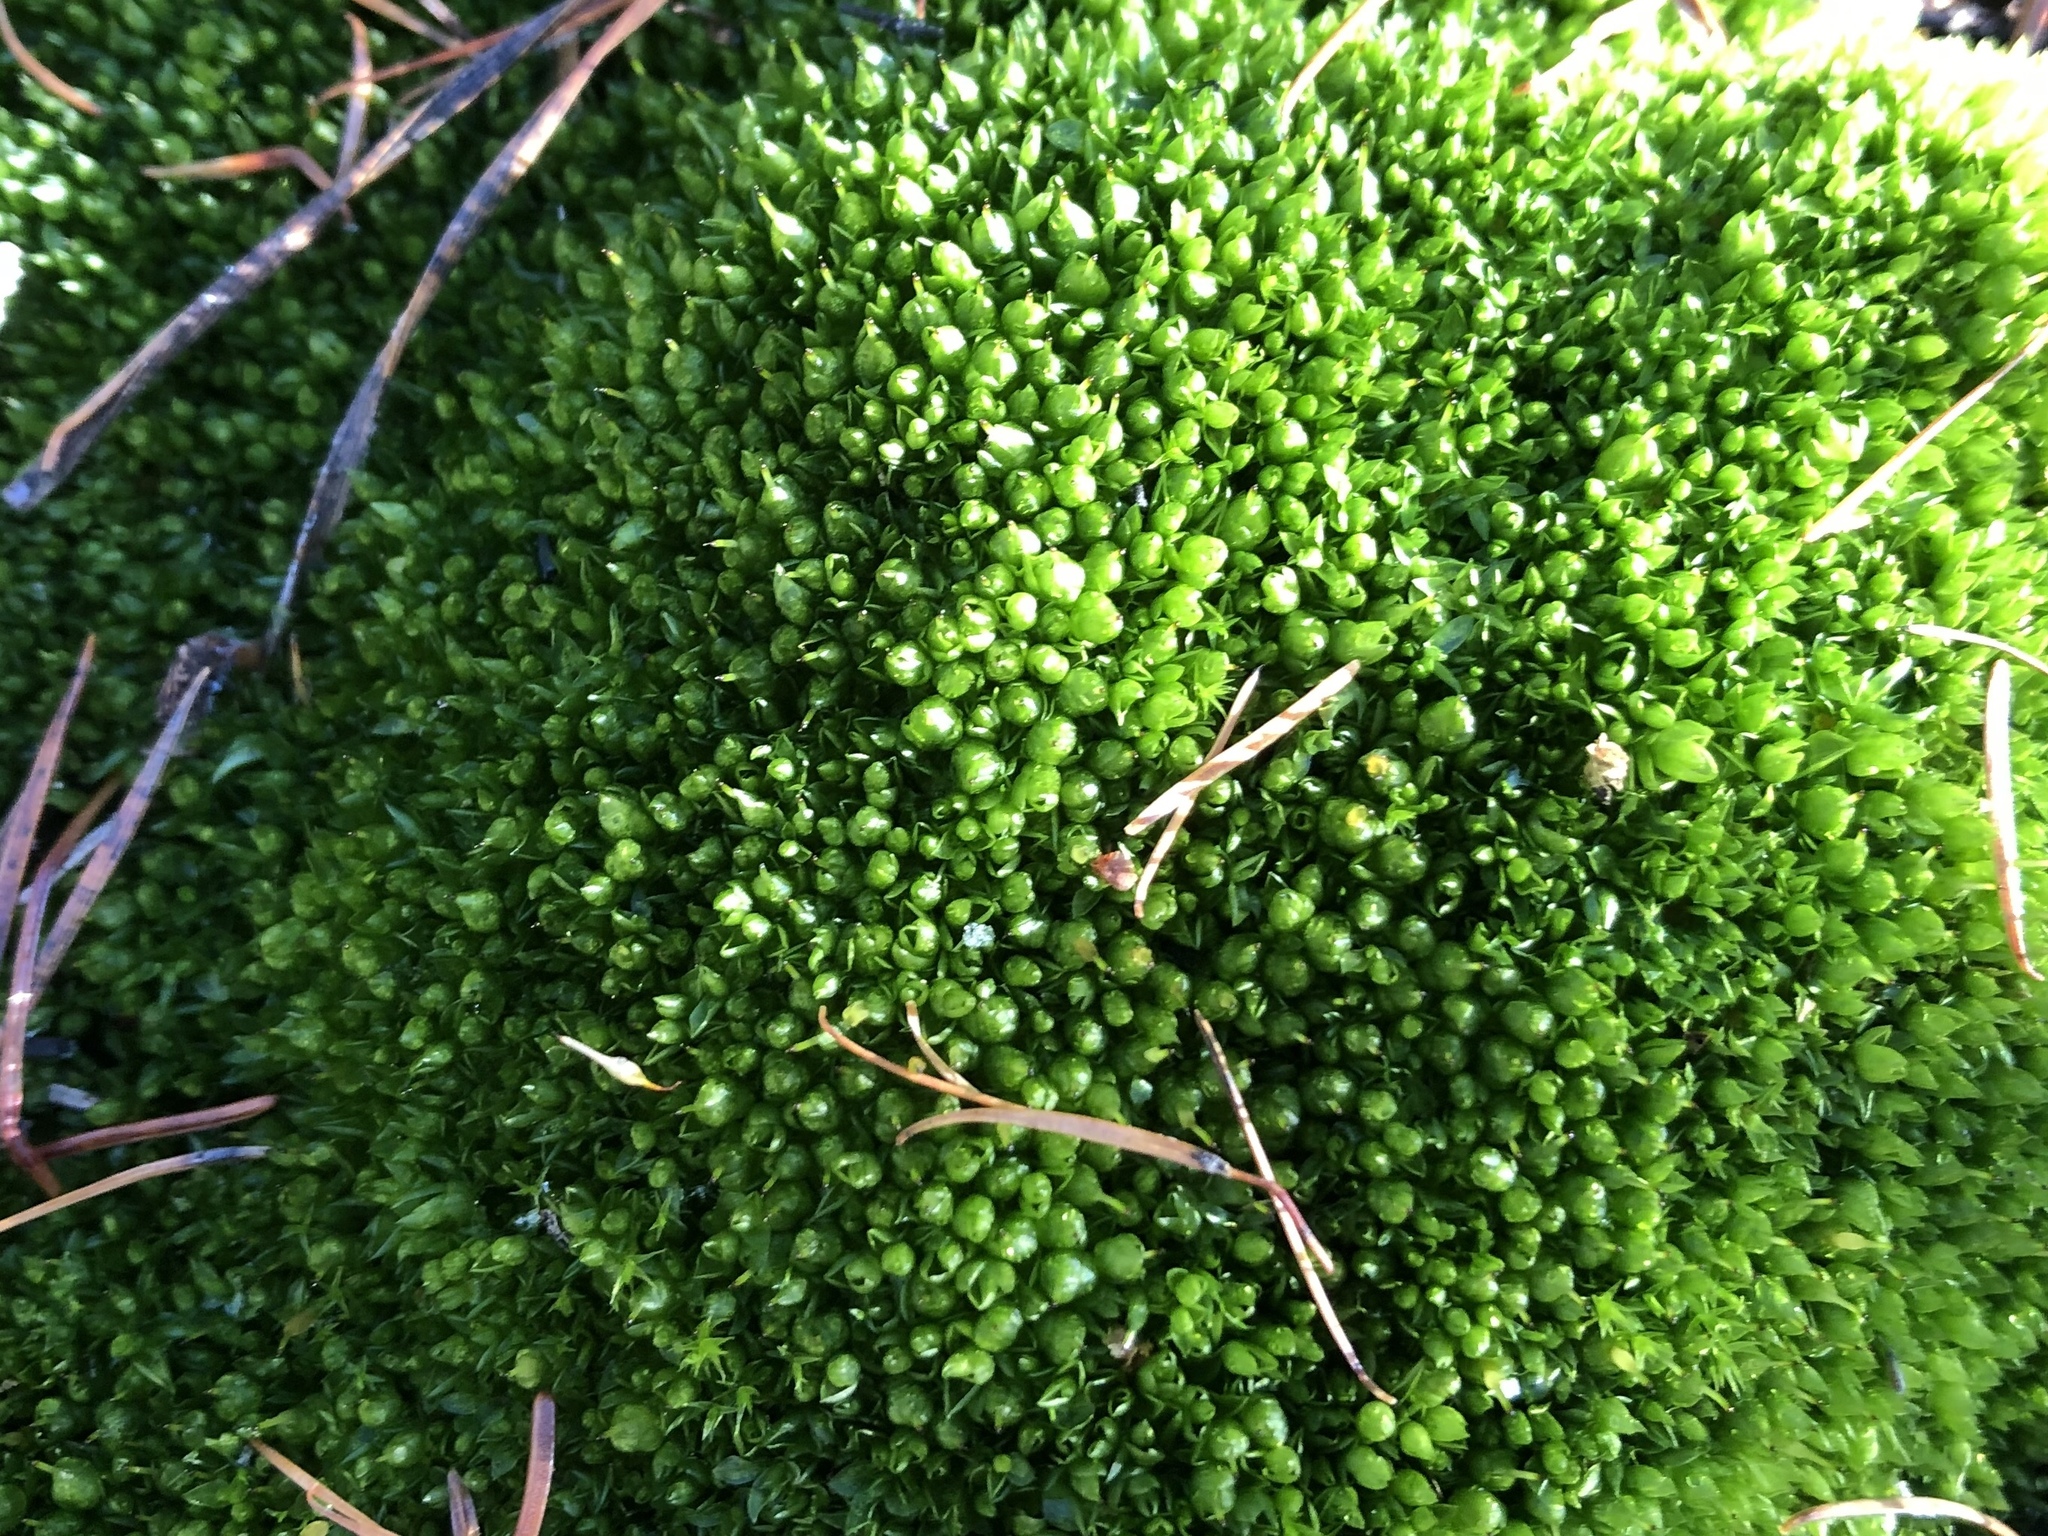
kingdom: Plantae
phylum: Bryophyta
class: Bryopsida
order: Funariales
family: Funariaceae
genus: Funaria
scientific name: Funaria hygrometrica
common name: Common cord moss
